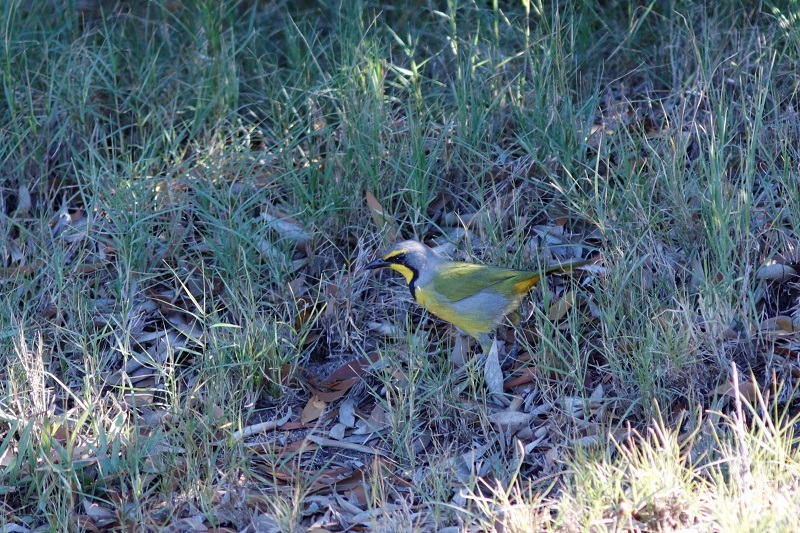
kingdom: Animalia
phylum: Chordata
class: Aves
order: Passeriformes
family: Malaconotidae
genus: Telophorus
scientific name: Telophorus zeylonus
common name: Bokmakierie
